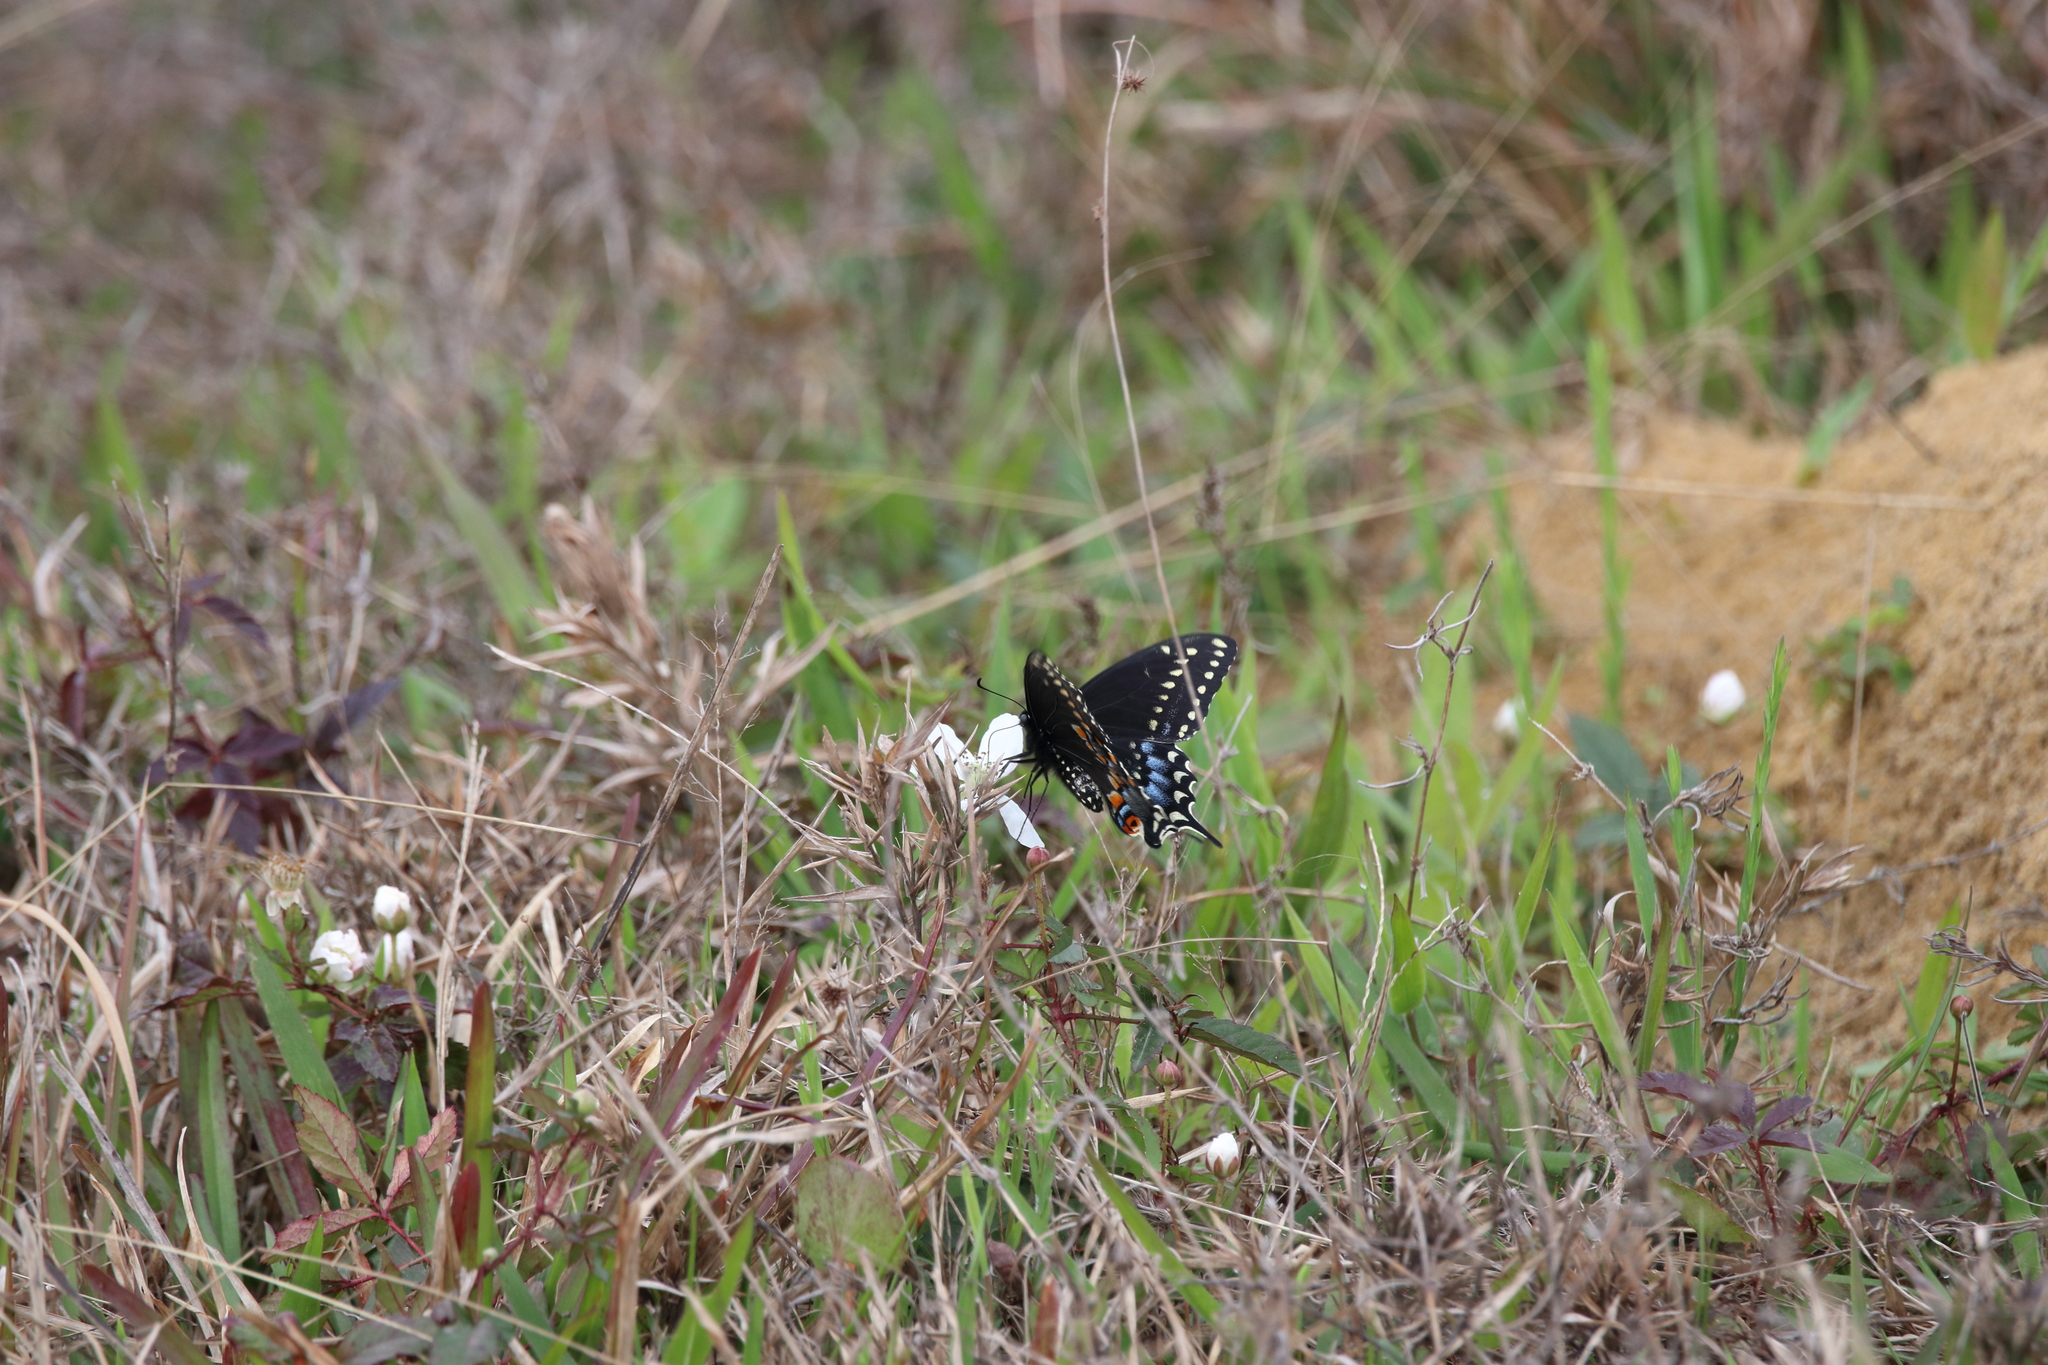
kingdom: Animalia
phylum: Arthropoda
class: Insecta
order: Lepidoptera
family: Papilionidae
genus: Papilio
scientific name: Papilio polyxenes
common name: Black swallowtail
